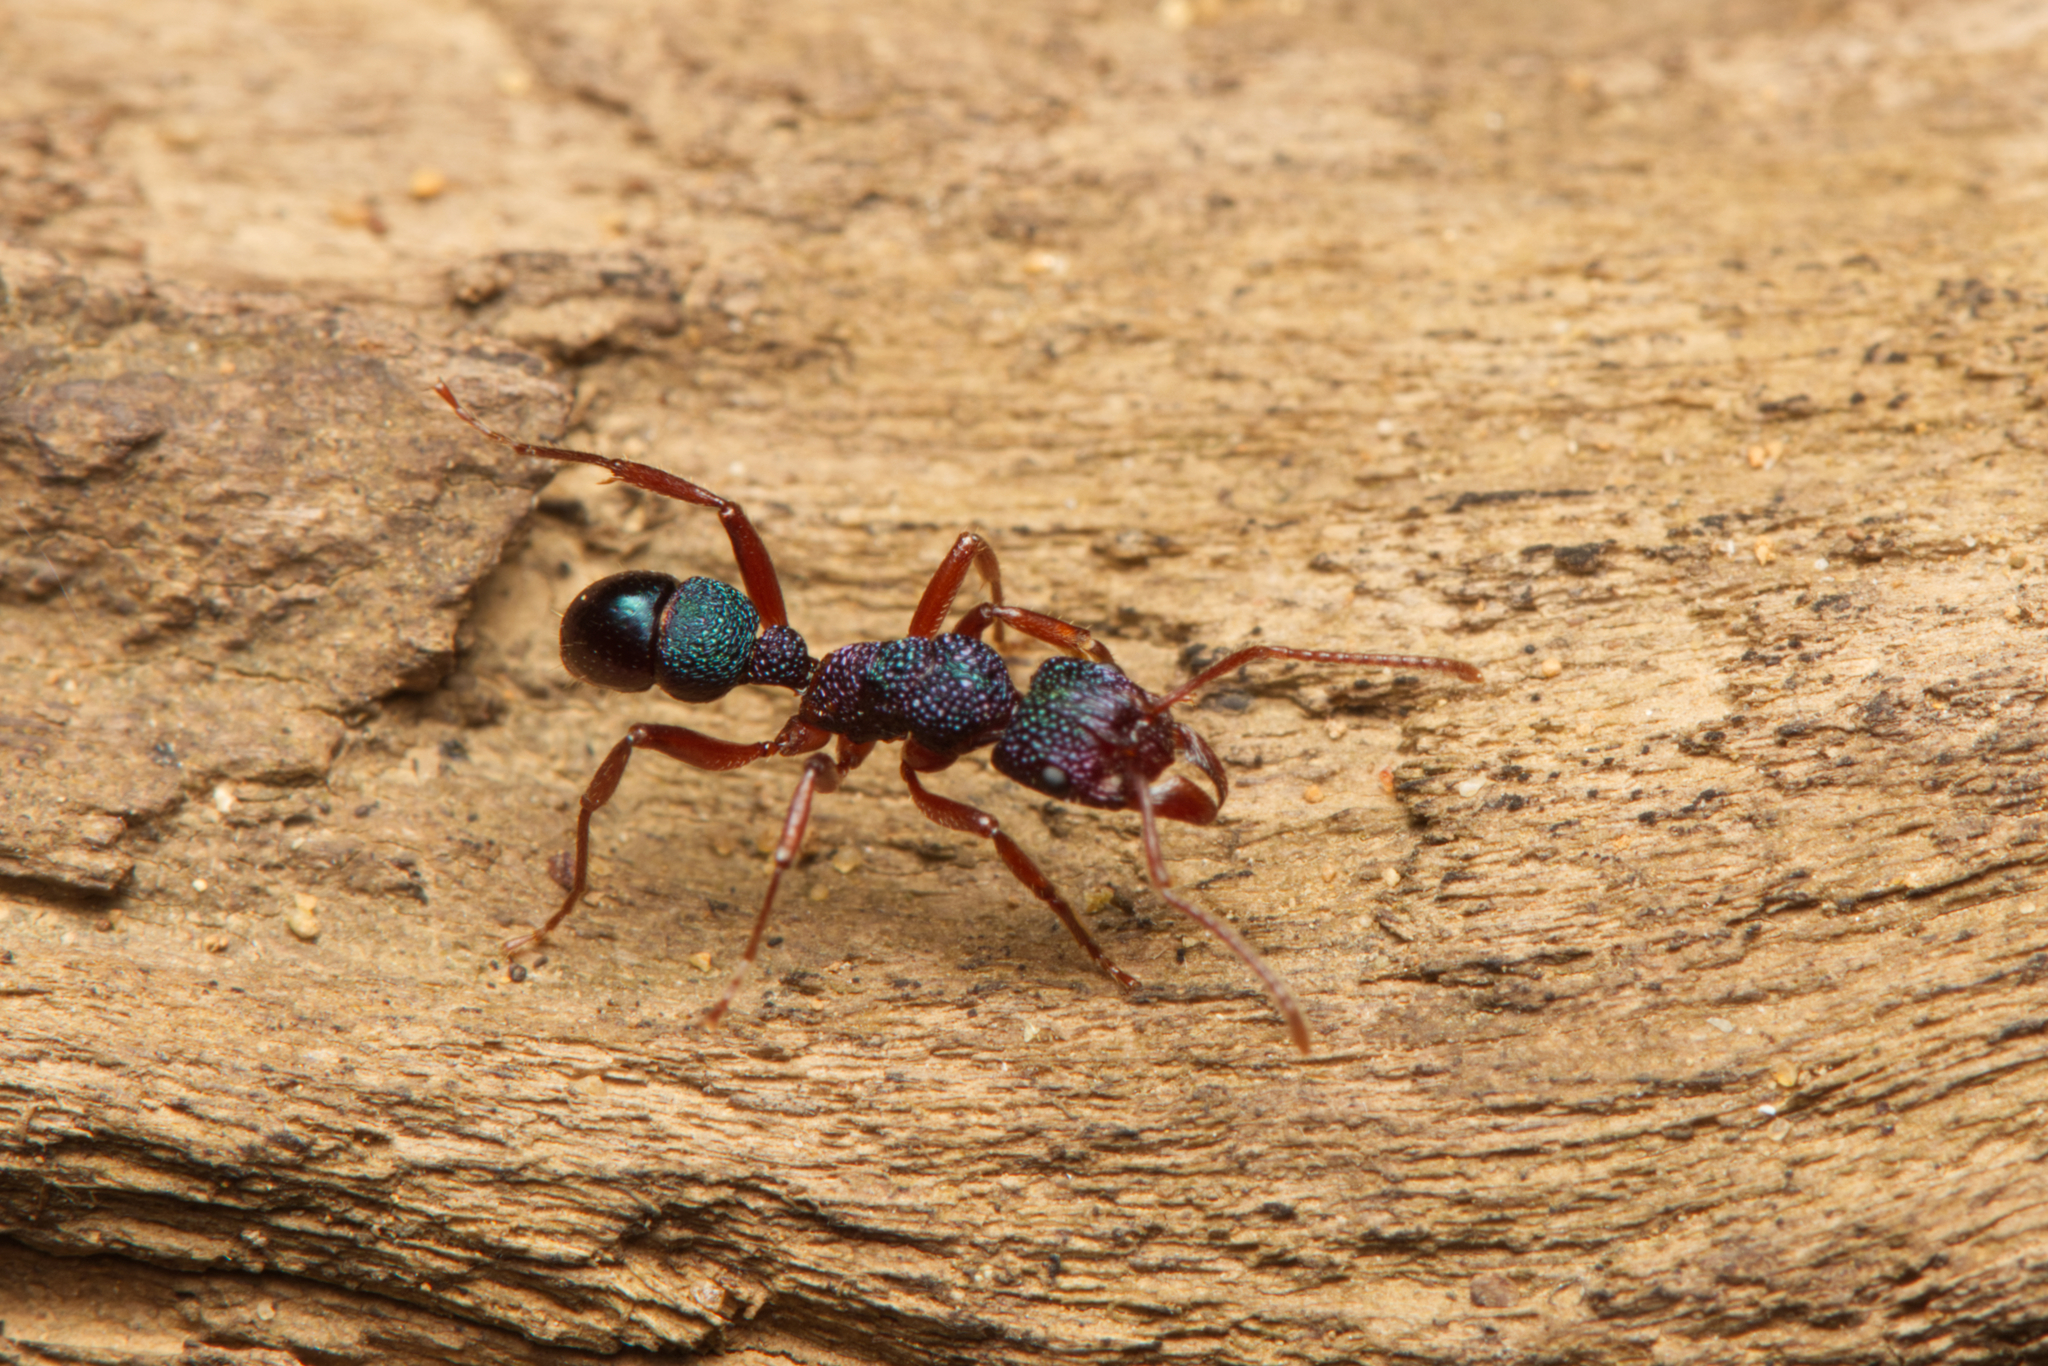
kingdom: Animalia
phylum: Arthropoda
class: Insecta
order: Hymenoptera
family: Formicidae
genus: Rhytidoponera
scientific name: Rhytidoponera scabrior
